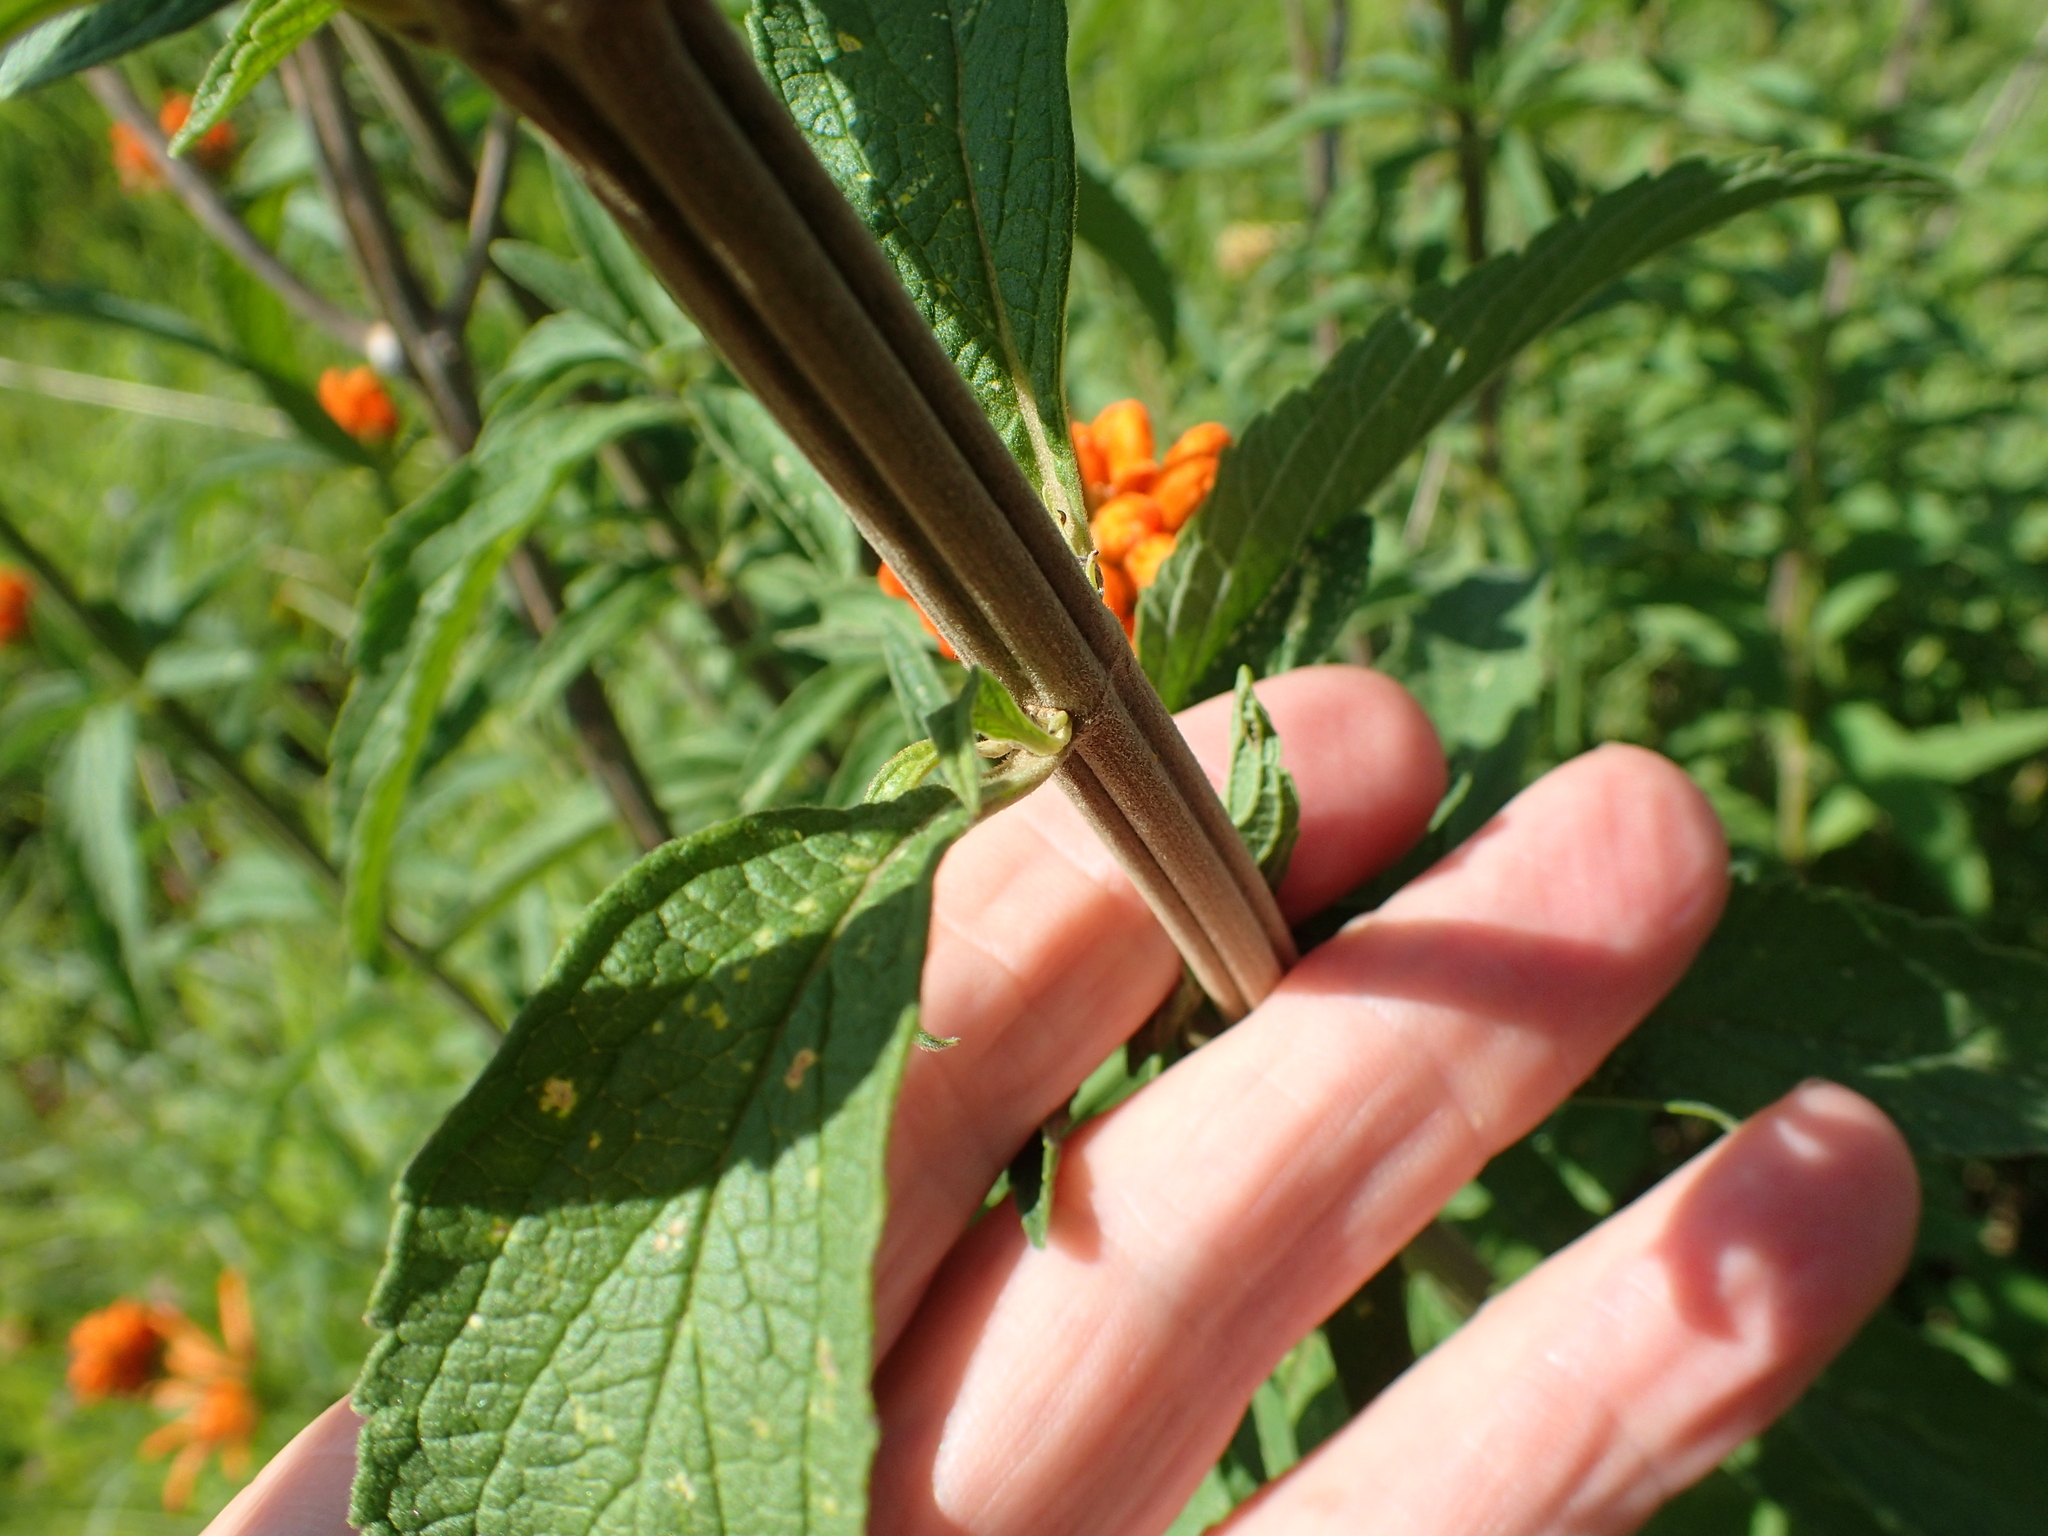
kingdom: Plantae
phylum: Tracheophyta
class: Magnoliopsida
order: Lamiales
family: Lamiaceae
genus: Leonotis
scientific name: Leonotis leonurus
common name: Lion's ear
